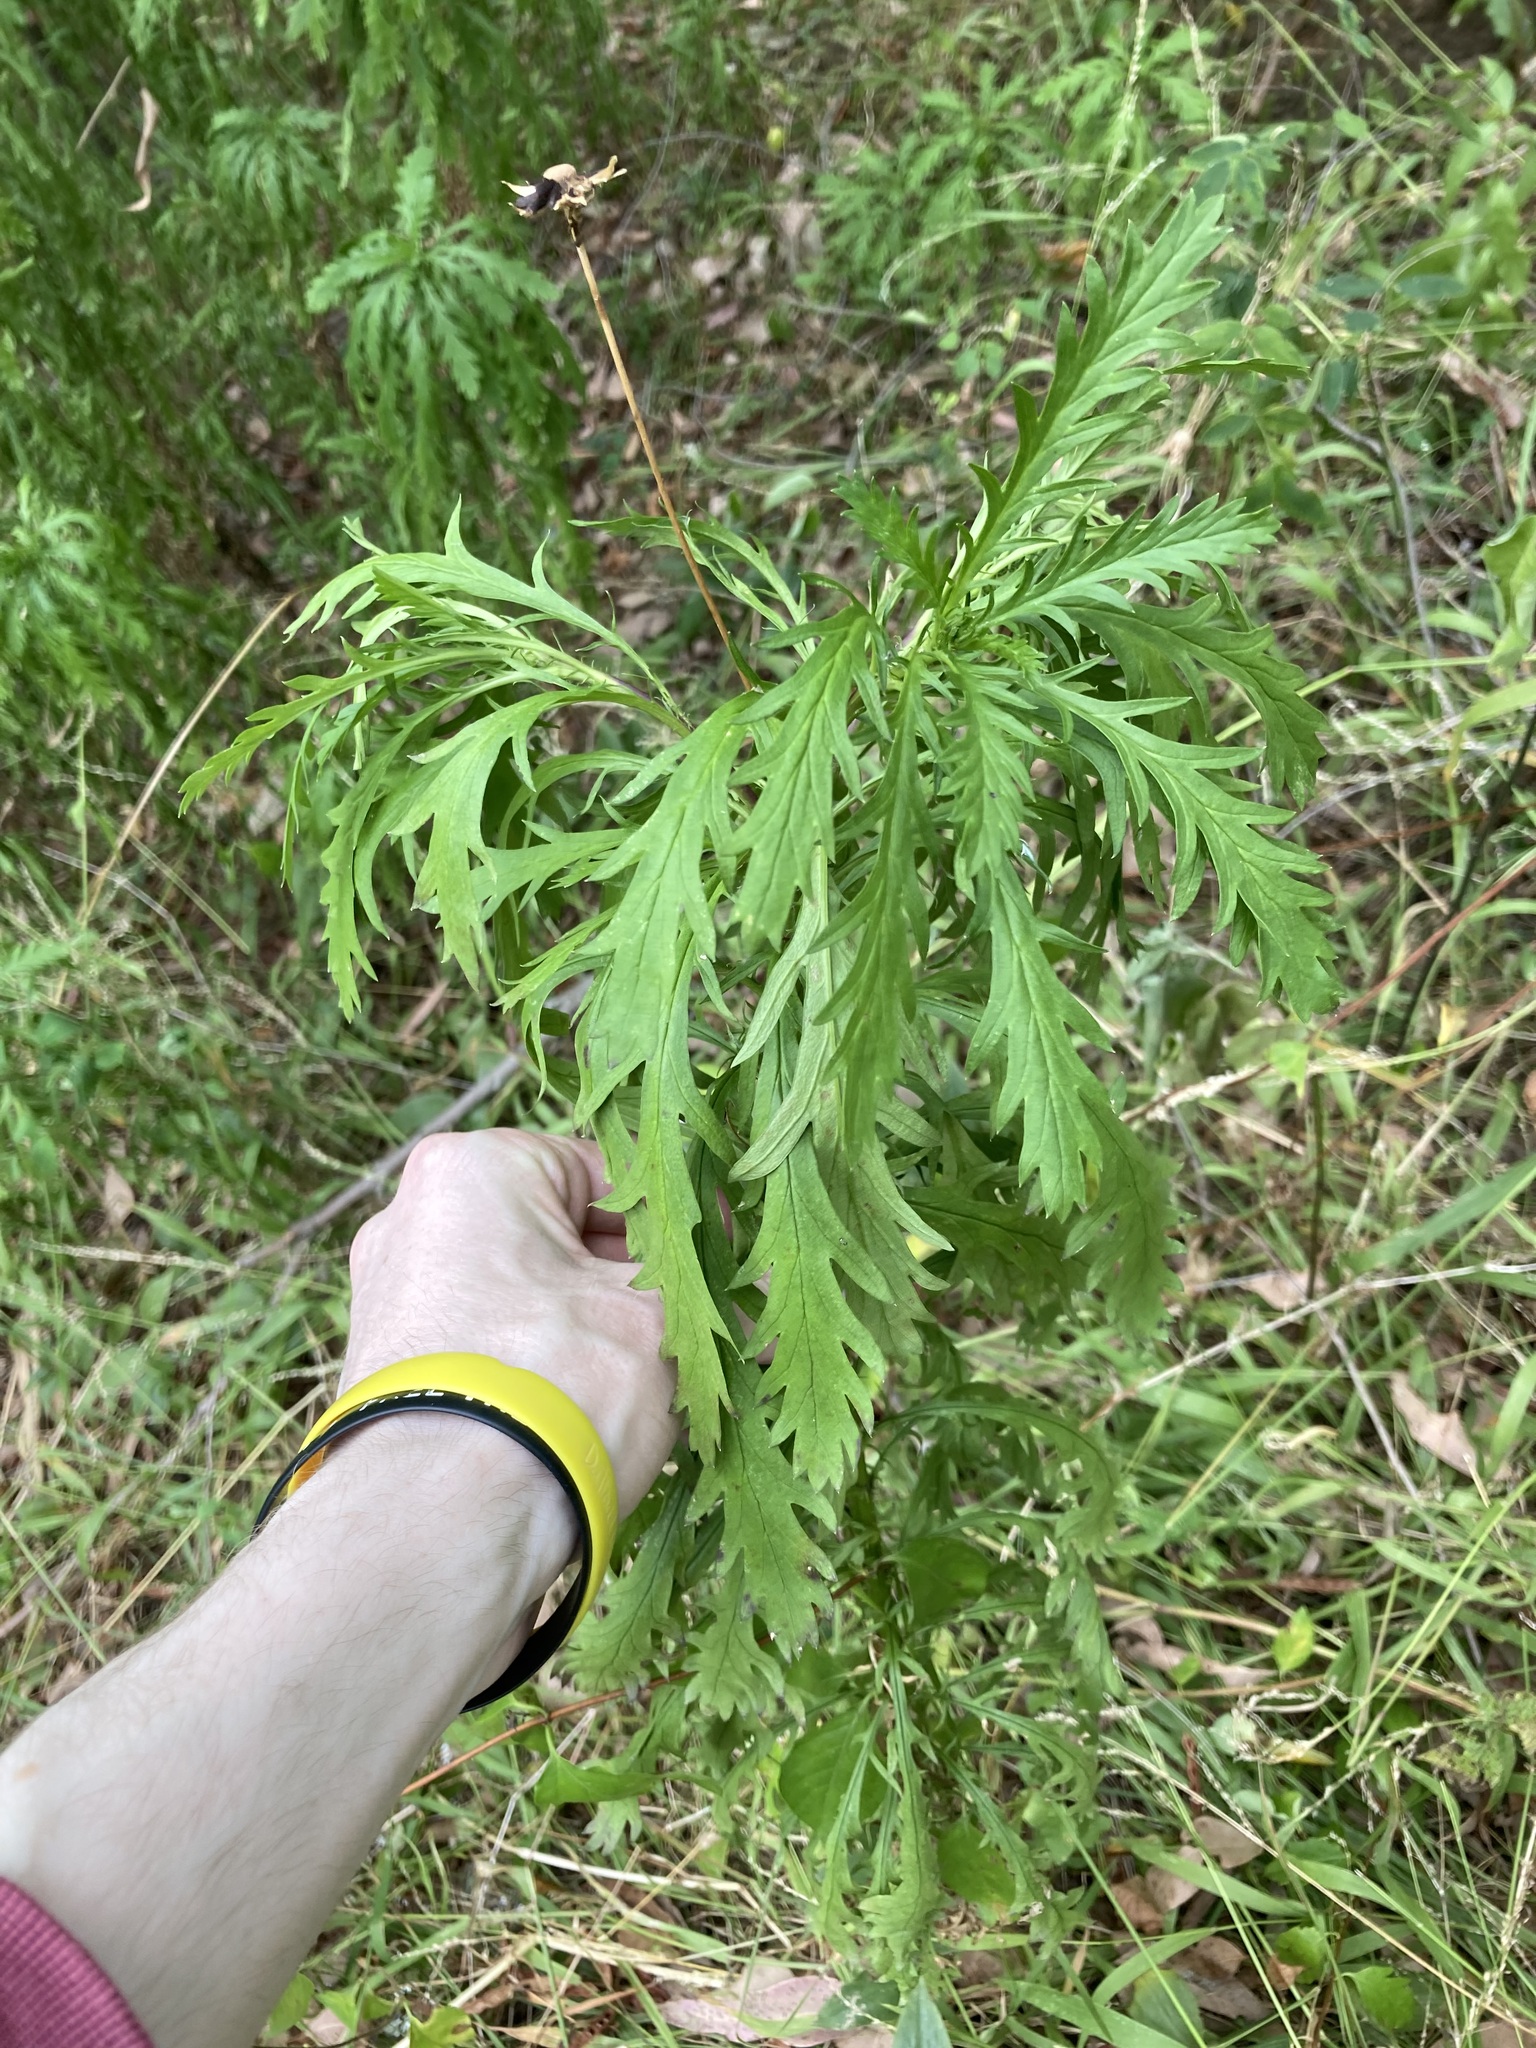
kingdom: Plantae
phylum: Tracheophyta
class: Magnoliopsida
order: Asterales
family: Asteraceae
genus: Euryops
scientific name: Euryops chrysanthemoides
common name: Bull's eye
